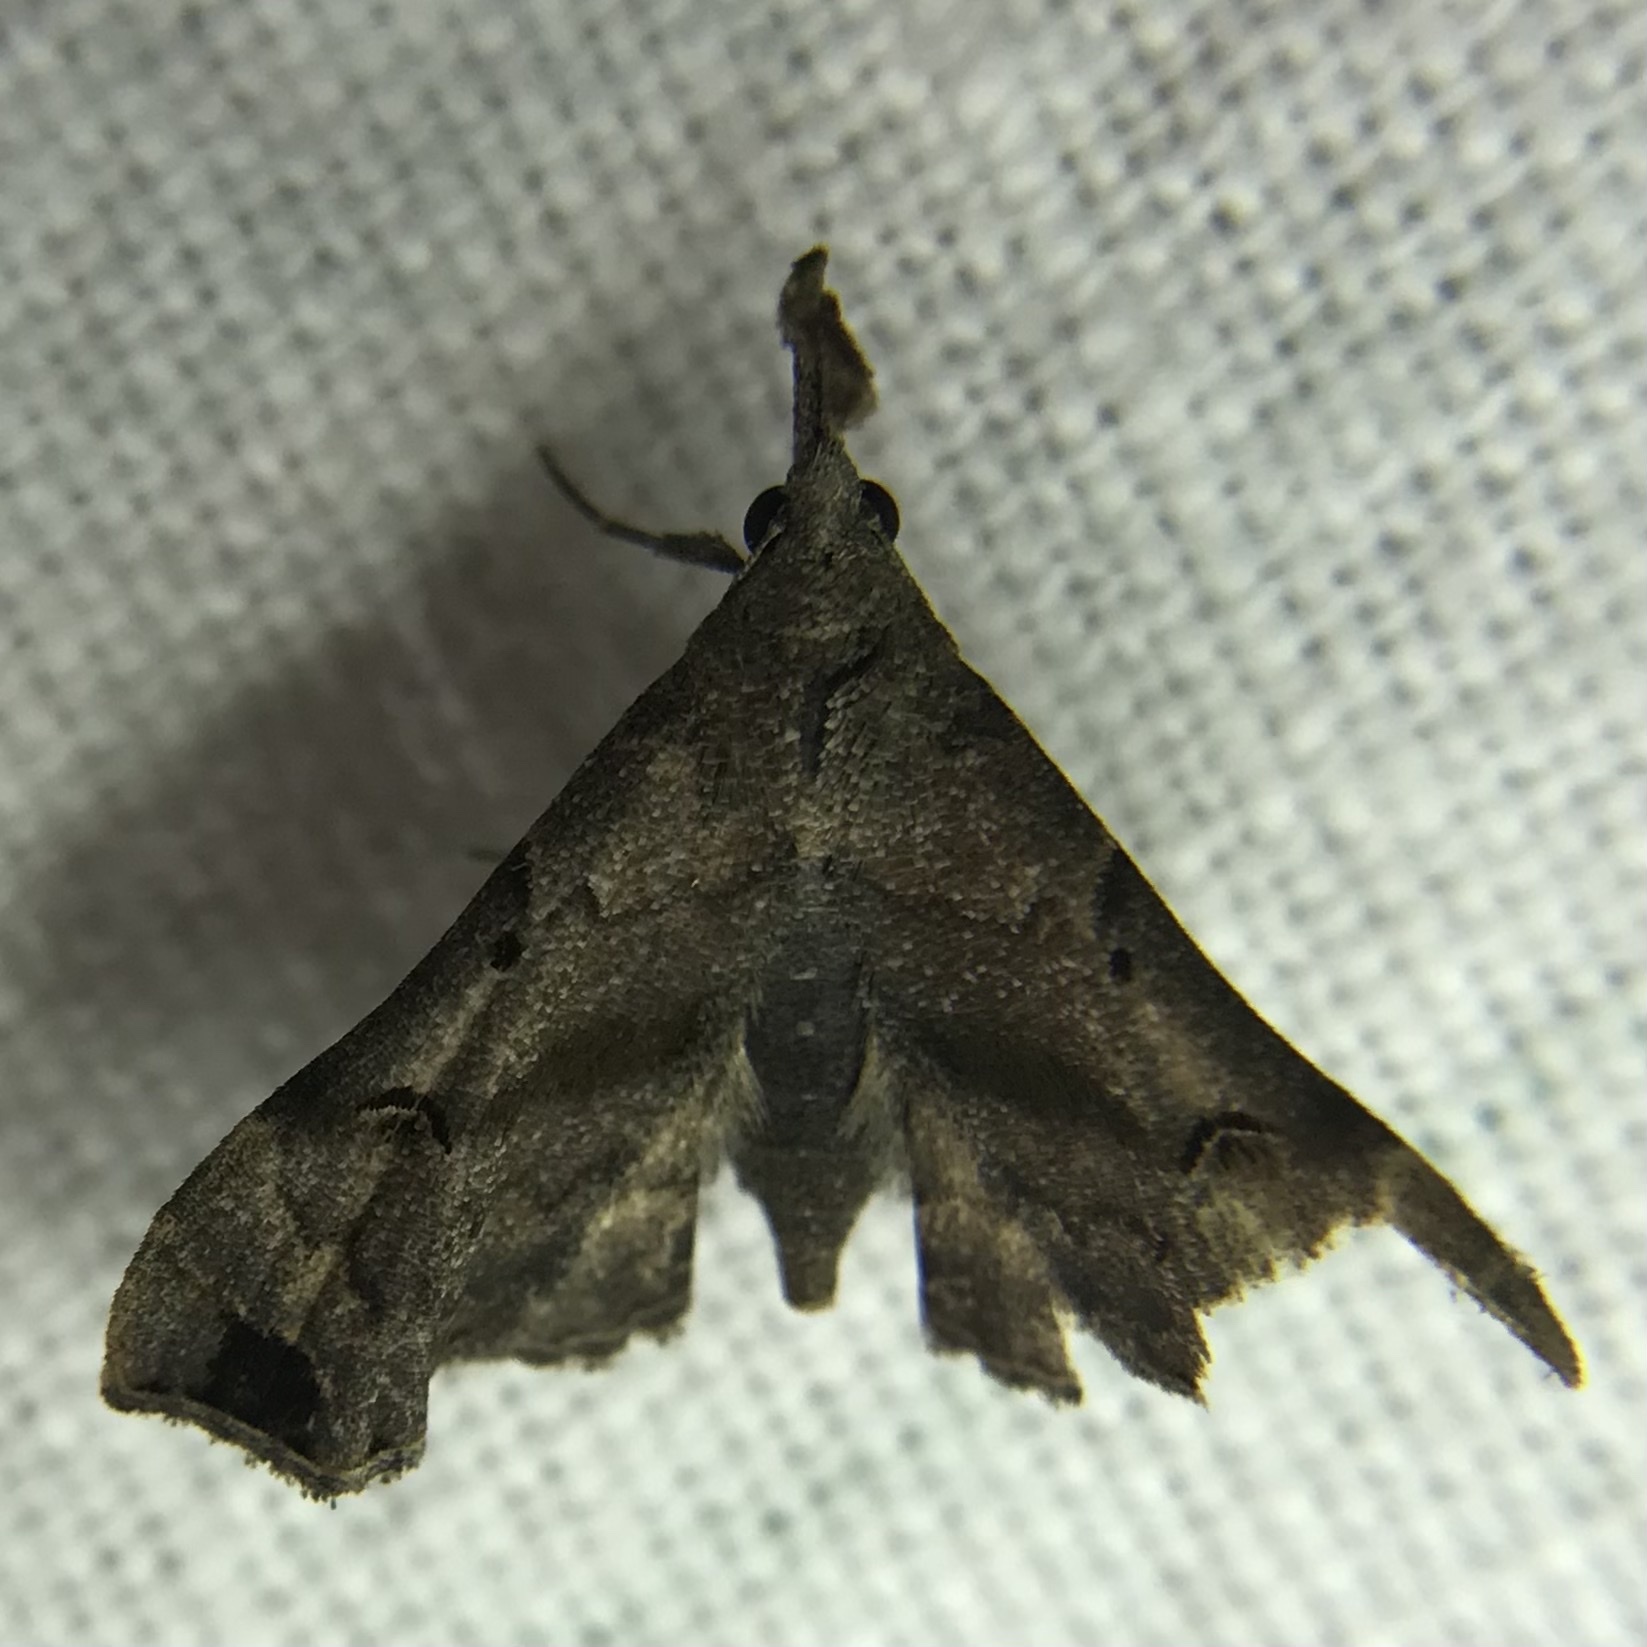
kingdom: Animalia
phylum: Arthropoda
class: Insecta
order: Lepidoptera
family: Erebidae
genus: Palthis
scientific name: Palthis asopialis
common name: Faint-spotted palthis moth
